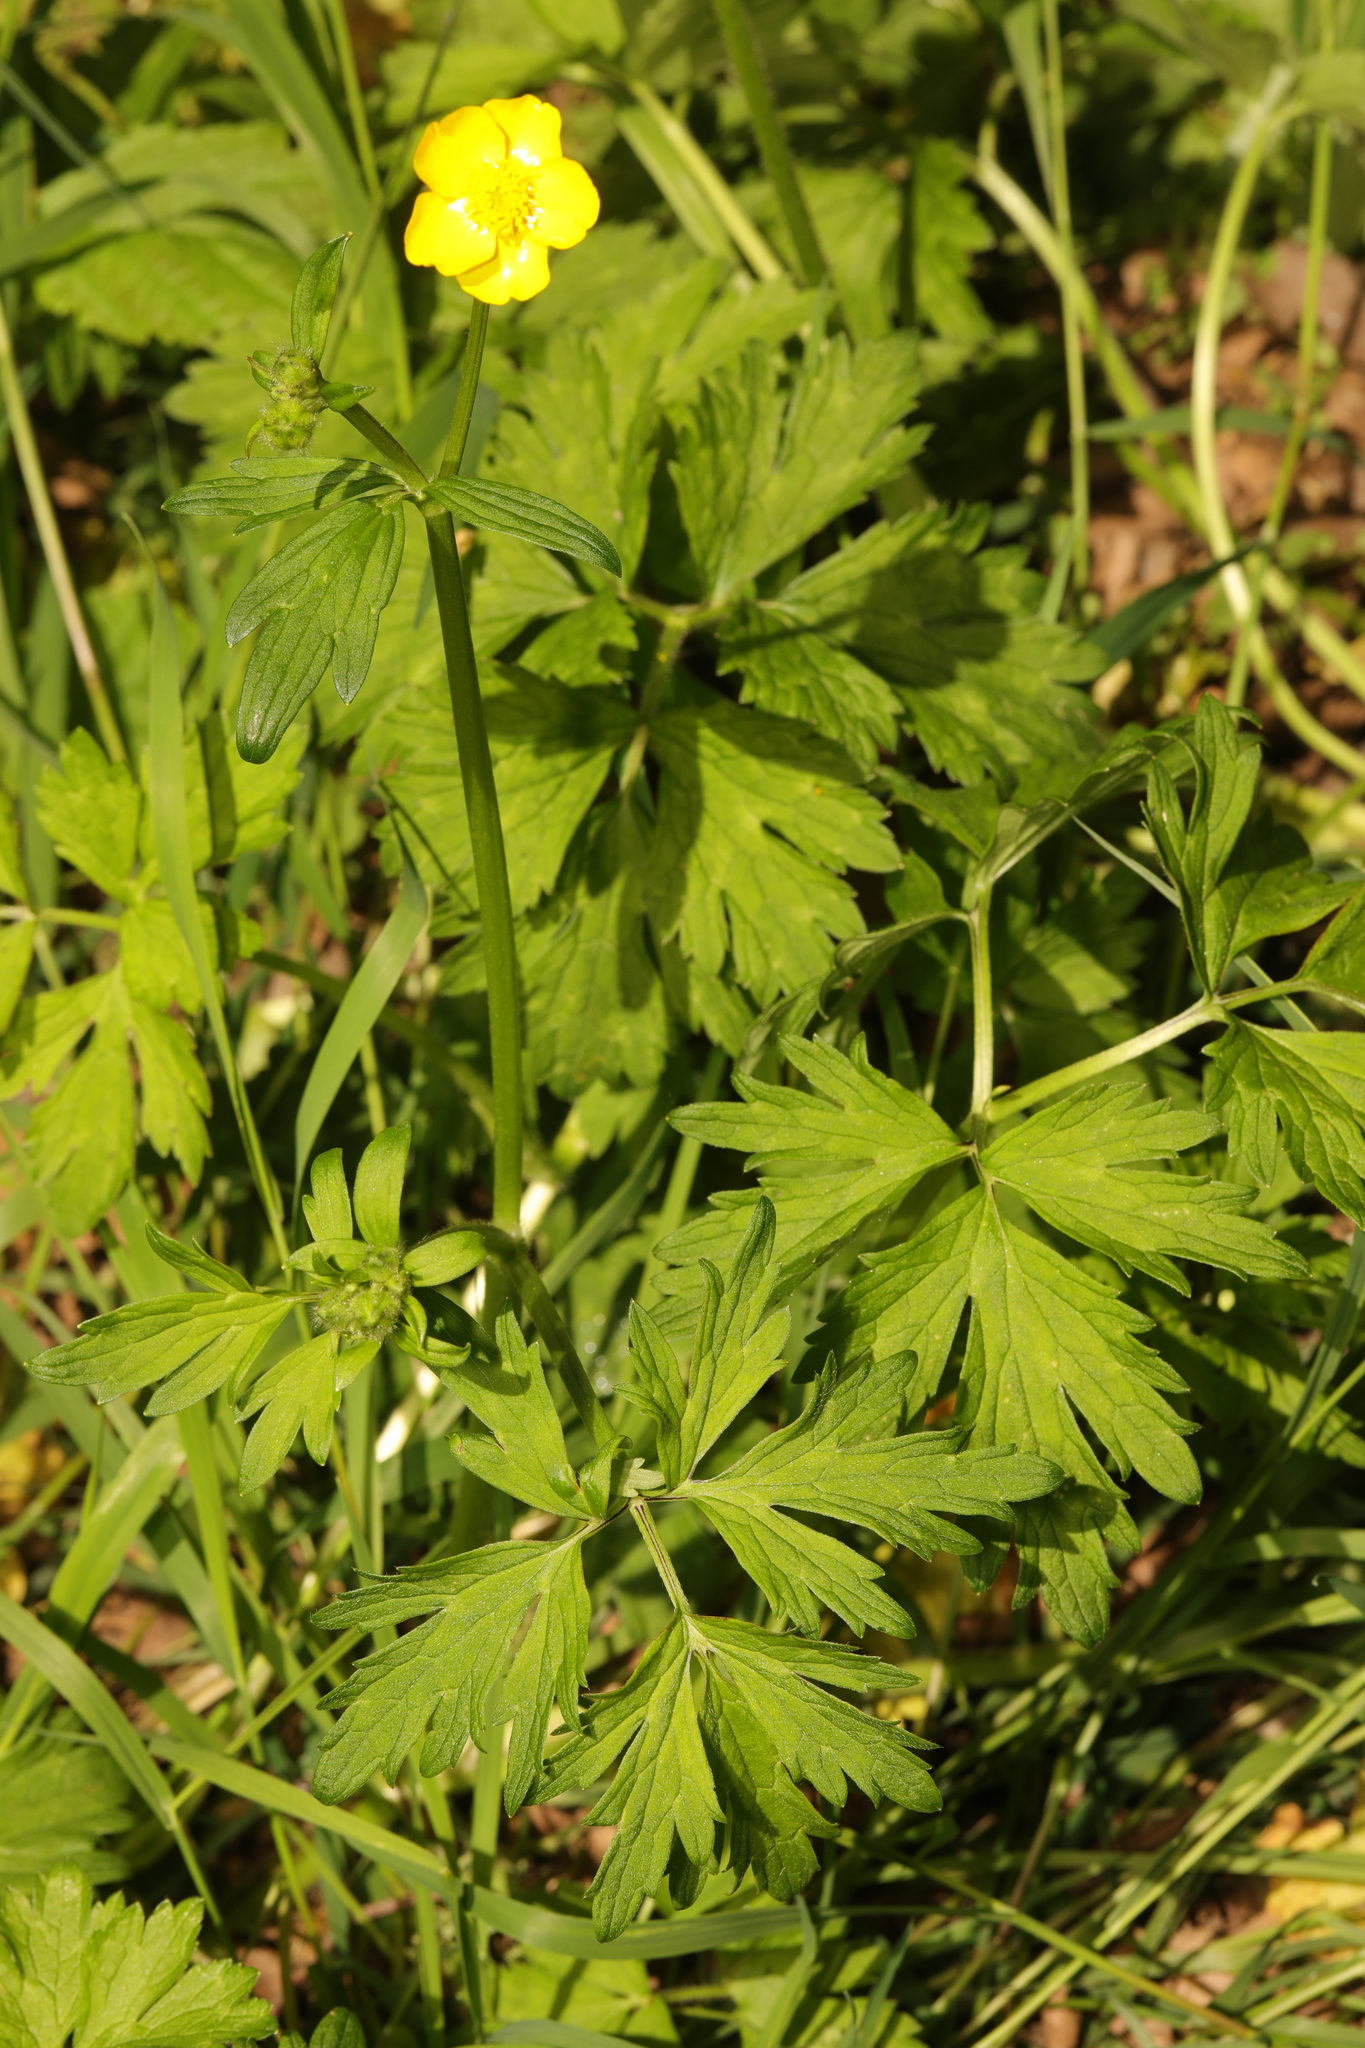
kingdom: Plantae
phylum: Tracheophyta
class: Magnoliopsida
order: Ranunculales
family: Ranunculaceae
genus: Ranunculus
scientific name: Ranunculus repens
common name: Creeping buttercup
